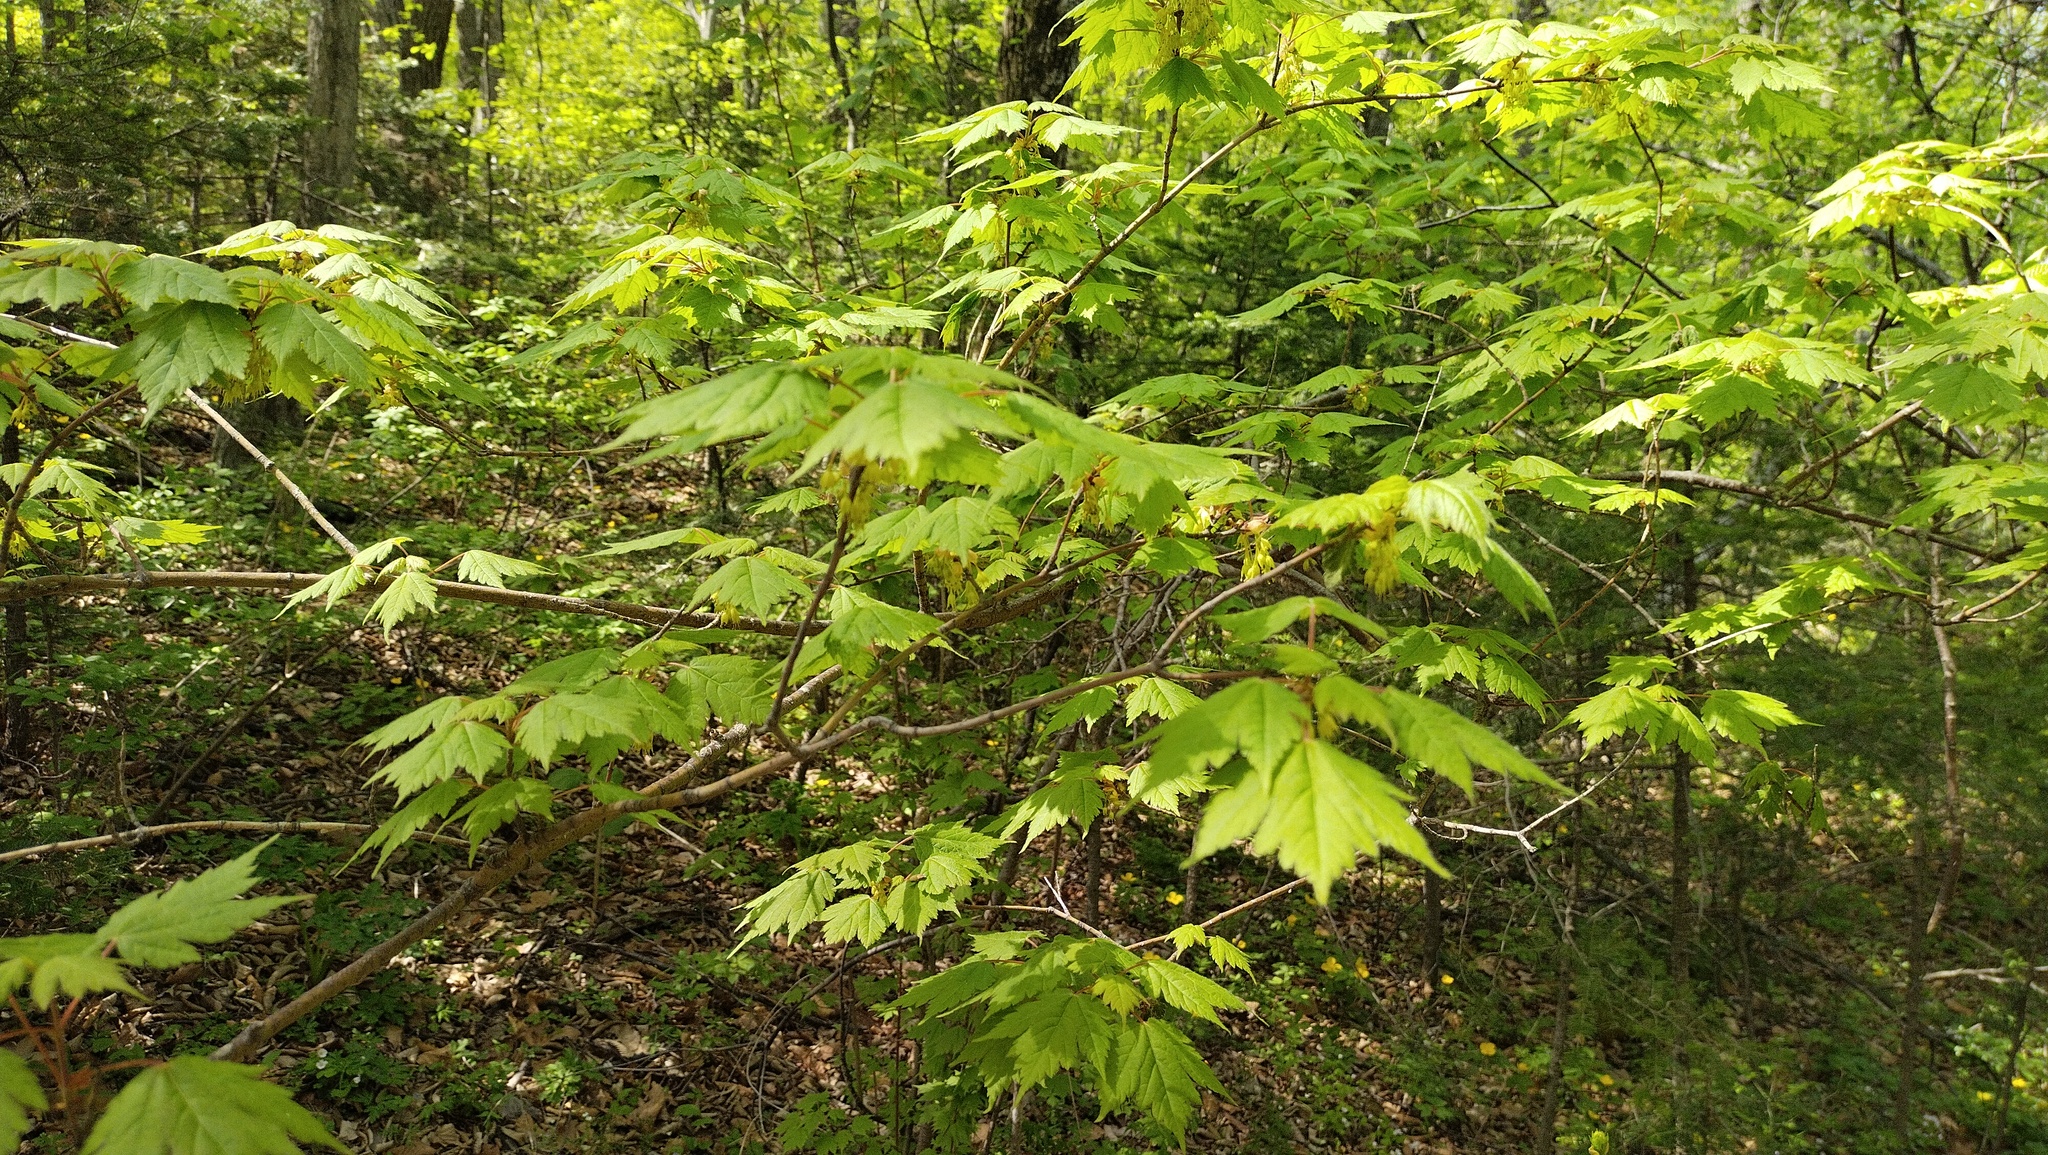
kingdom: Plantae
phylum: Tracheophyta
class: Magnoliopsida
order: Sapindales
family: Sapindaceae
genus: Acer
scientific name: Acer barbinerve
